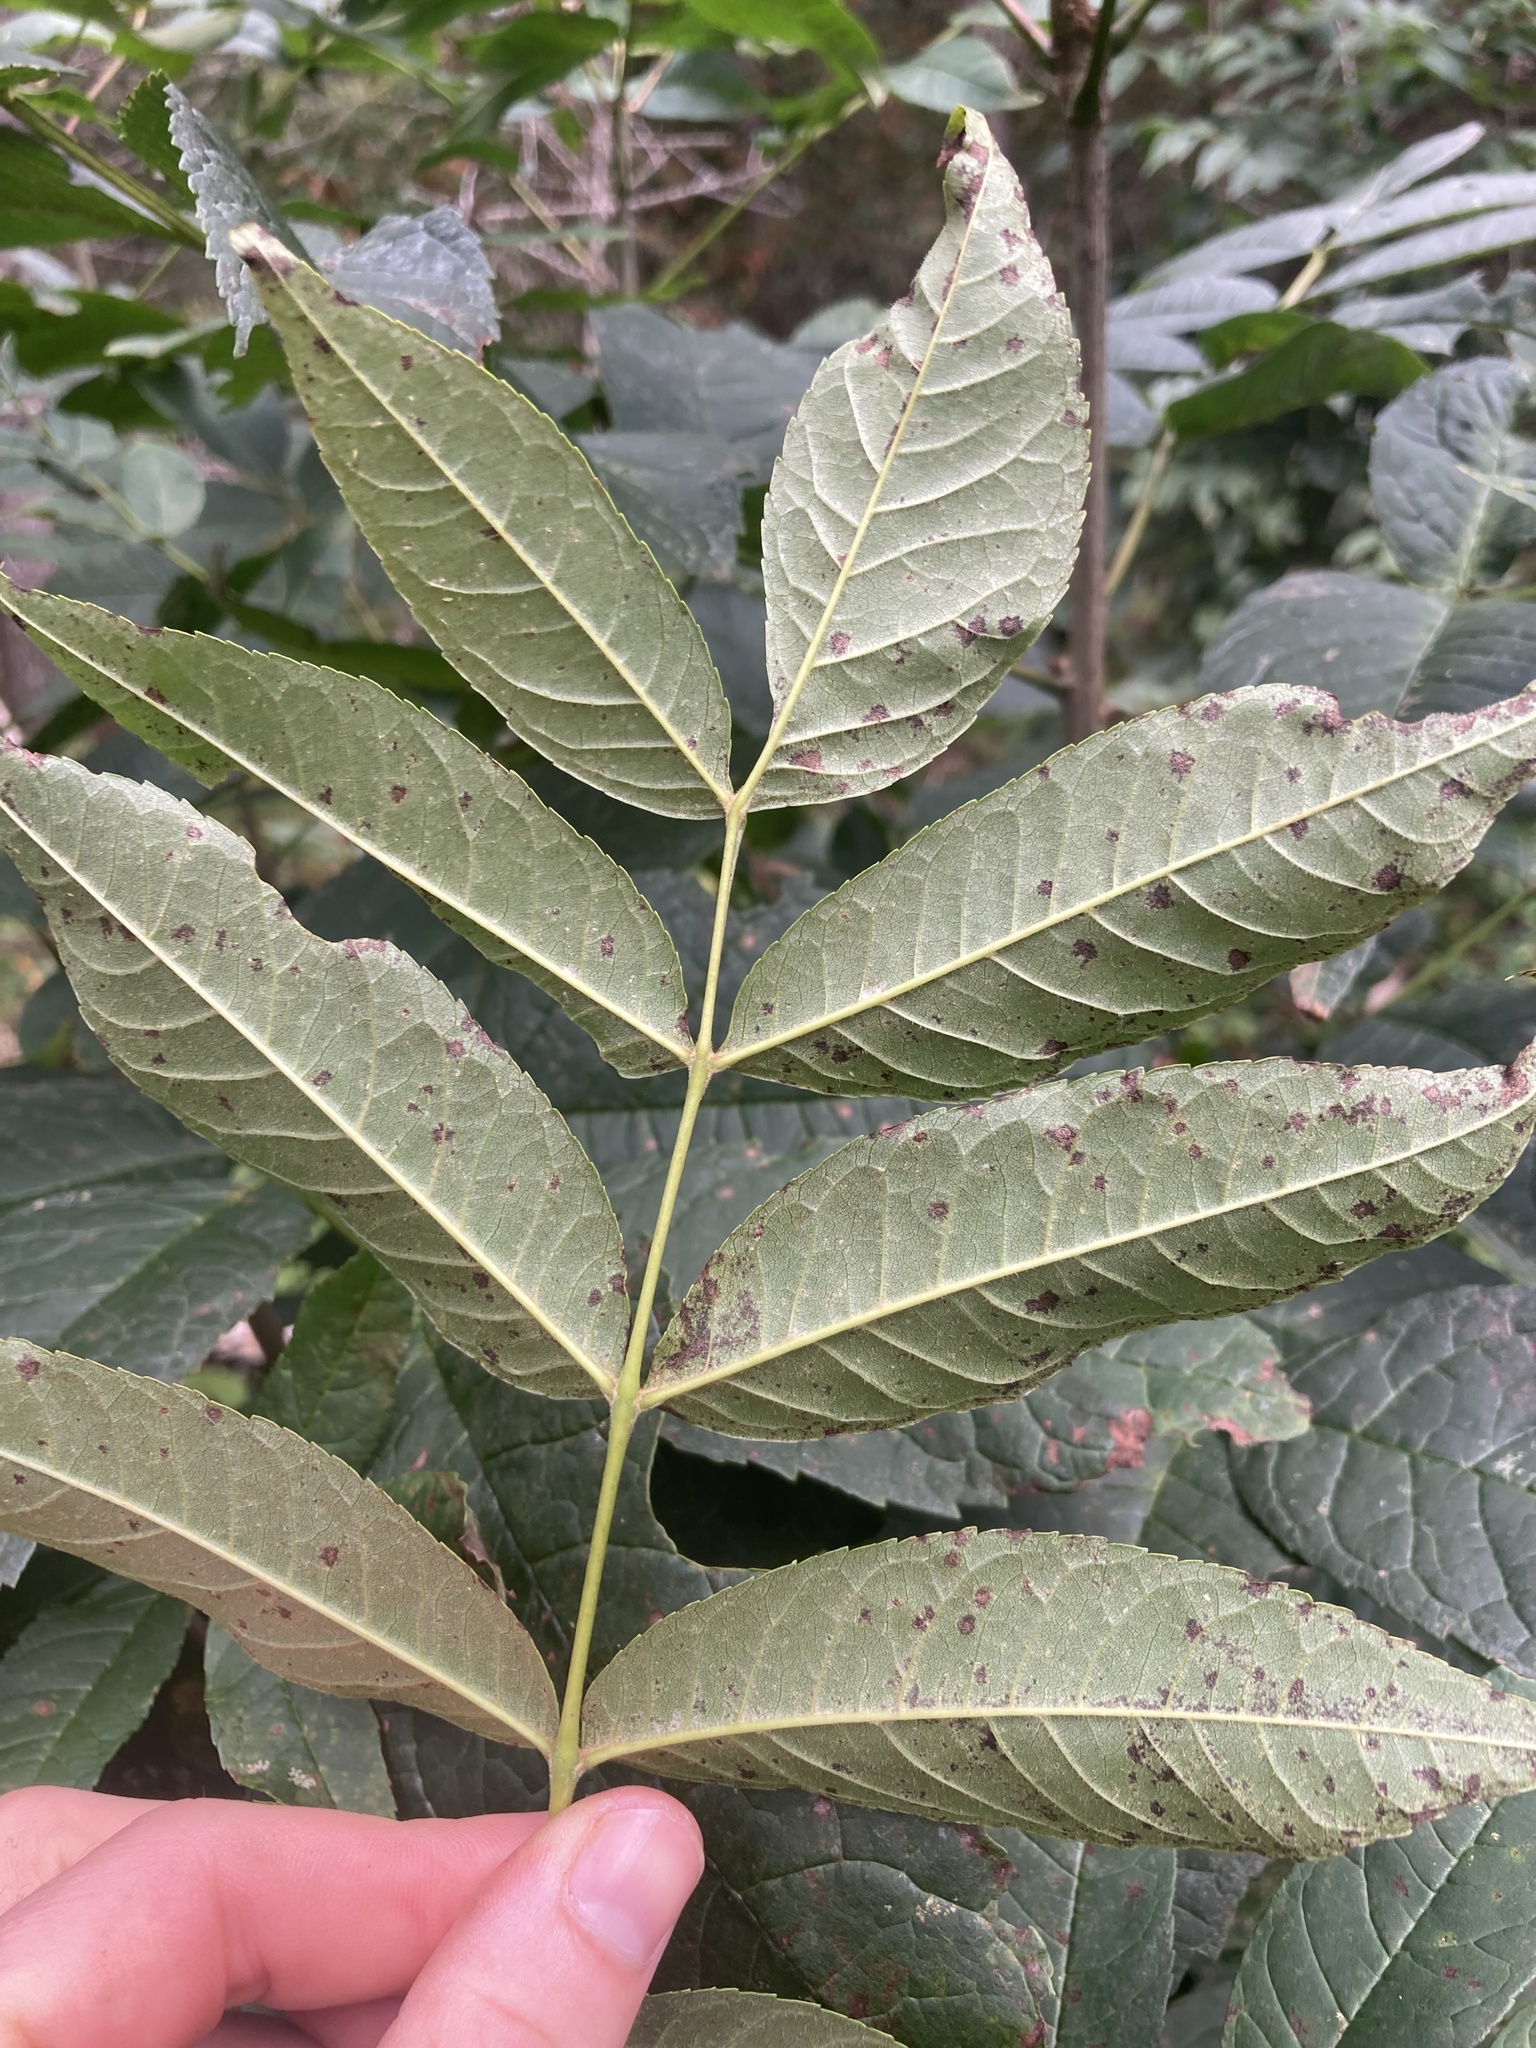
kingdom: Plantae
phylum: Tracheophyta
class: Magnoliopsida
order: Lamiales
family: Oleaceae
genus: Fraxinus
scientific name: Fraxinus nigra
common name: Black ash
